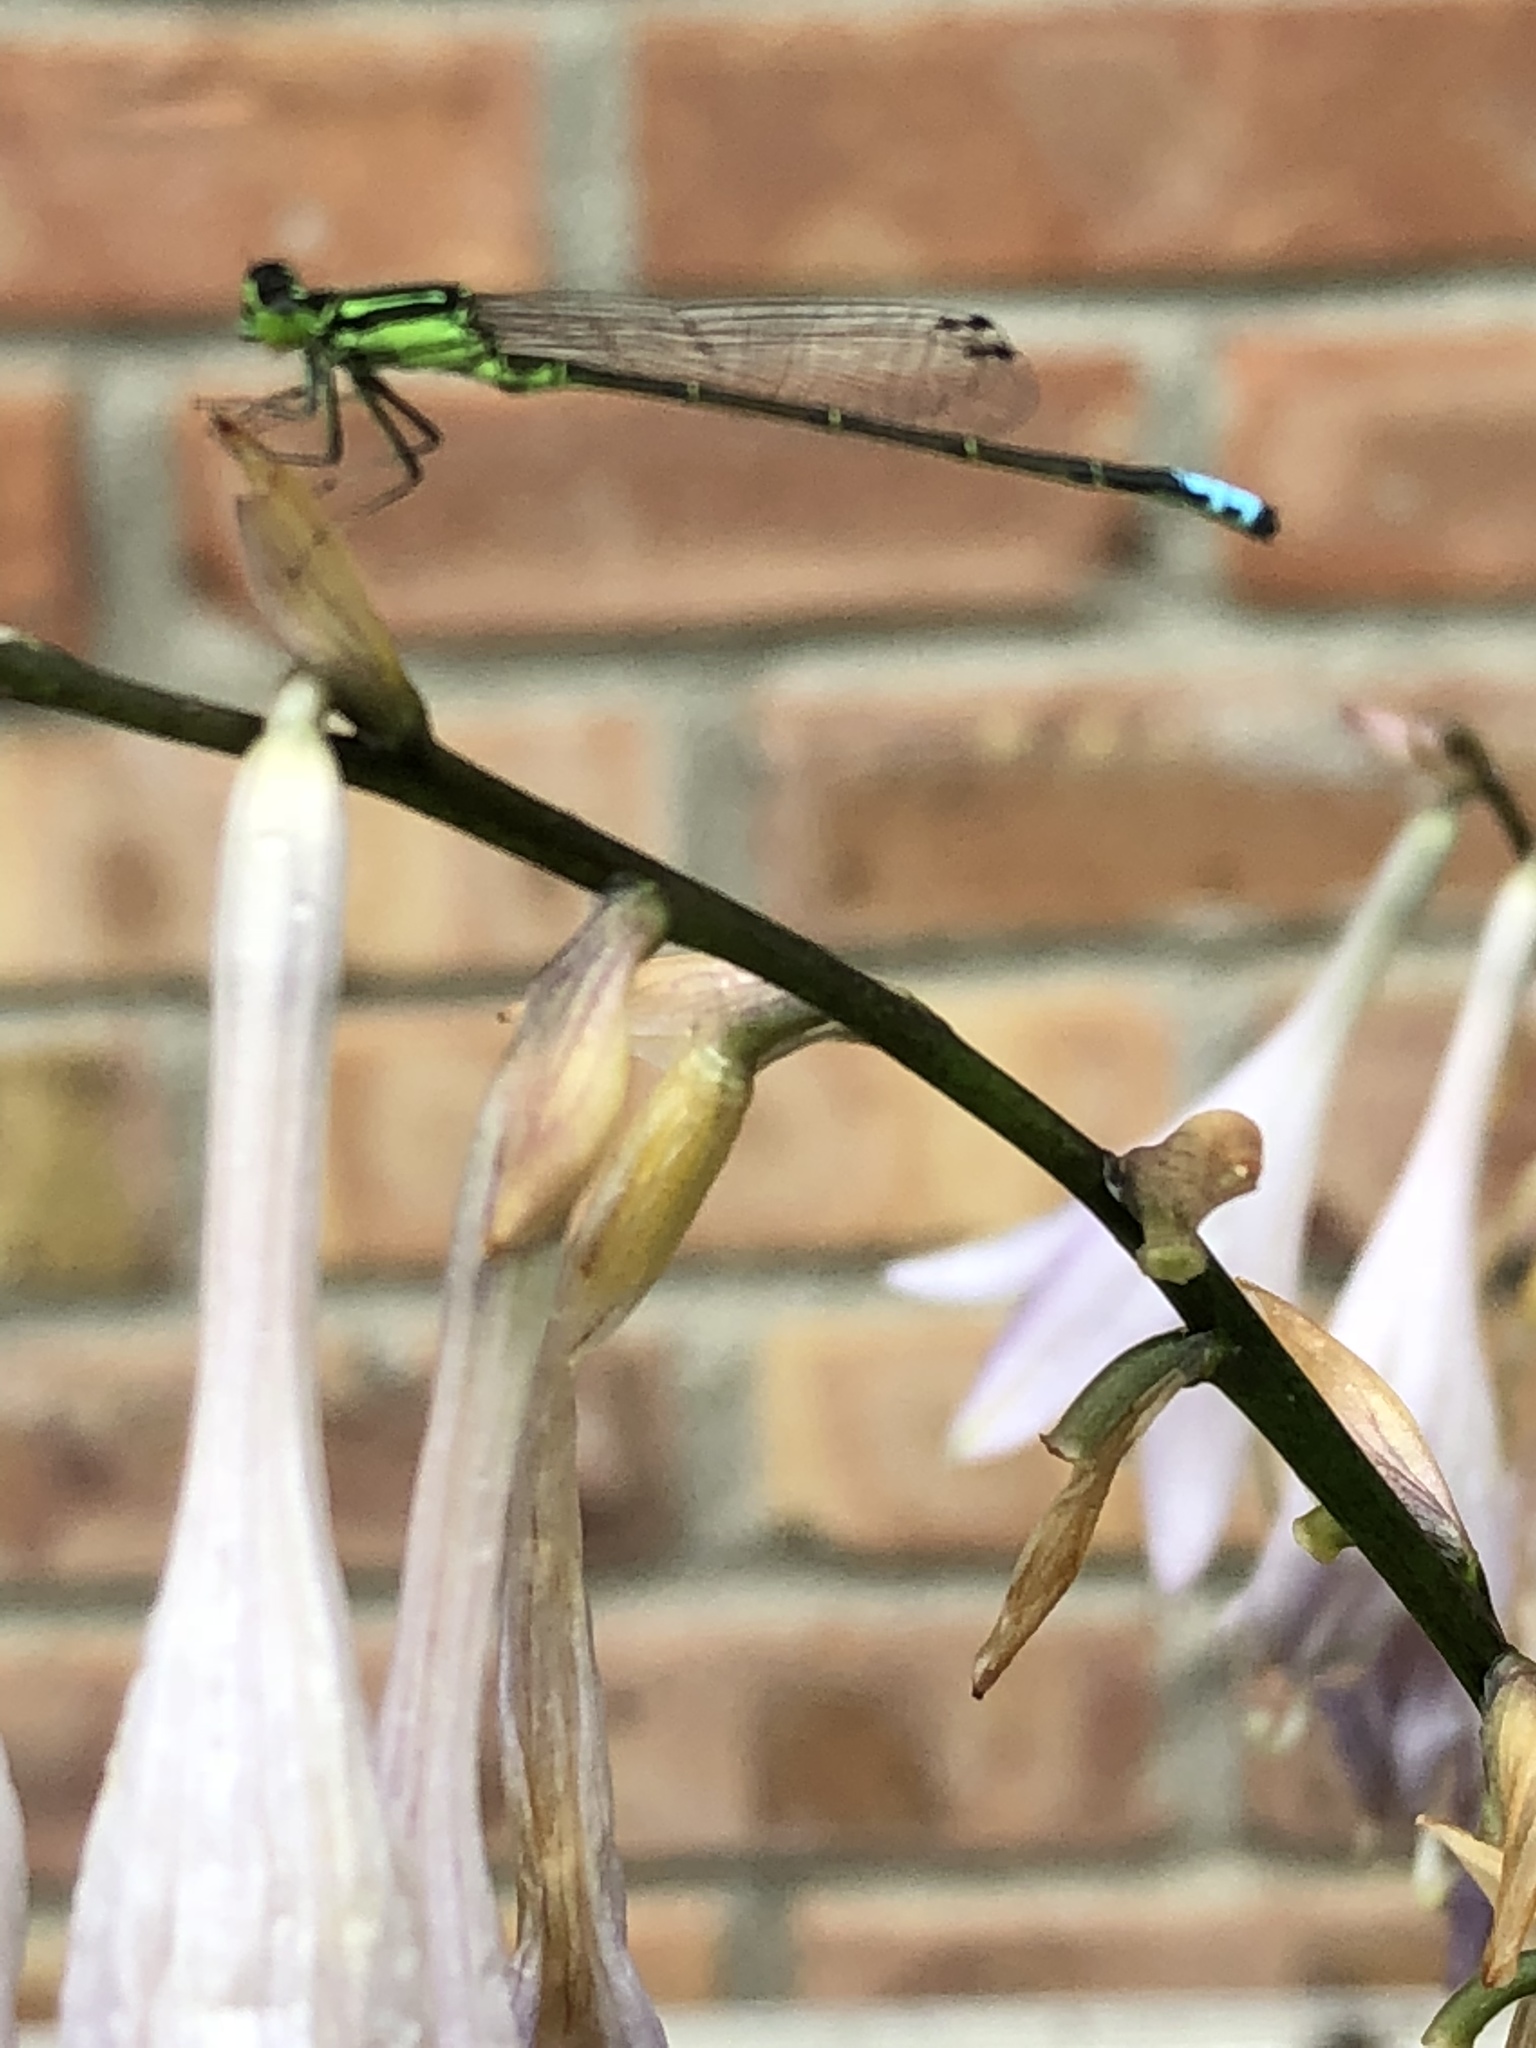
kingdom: Animalia
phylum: Arthropoda
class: Insecta
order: Odonata
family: Coenagrionidae
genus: Ischnura
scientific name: Ischnura verticalis
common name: Eastern forktail
